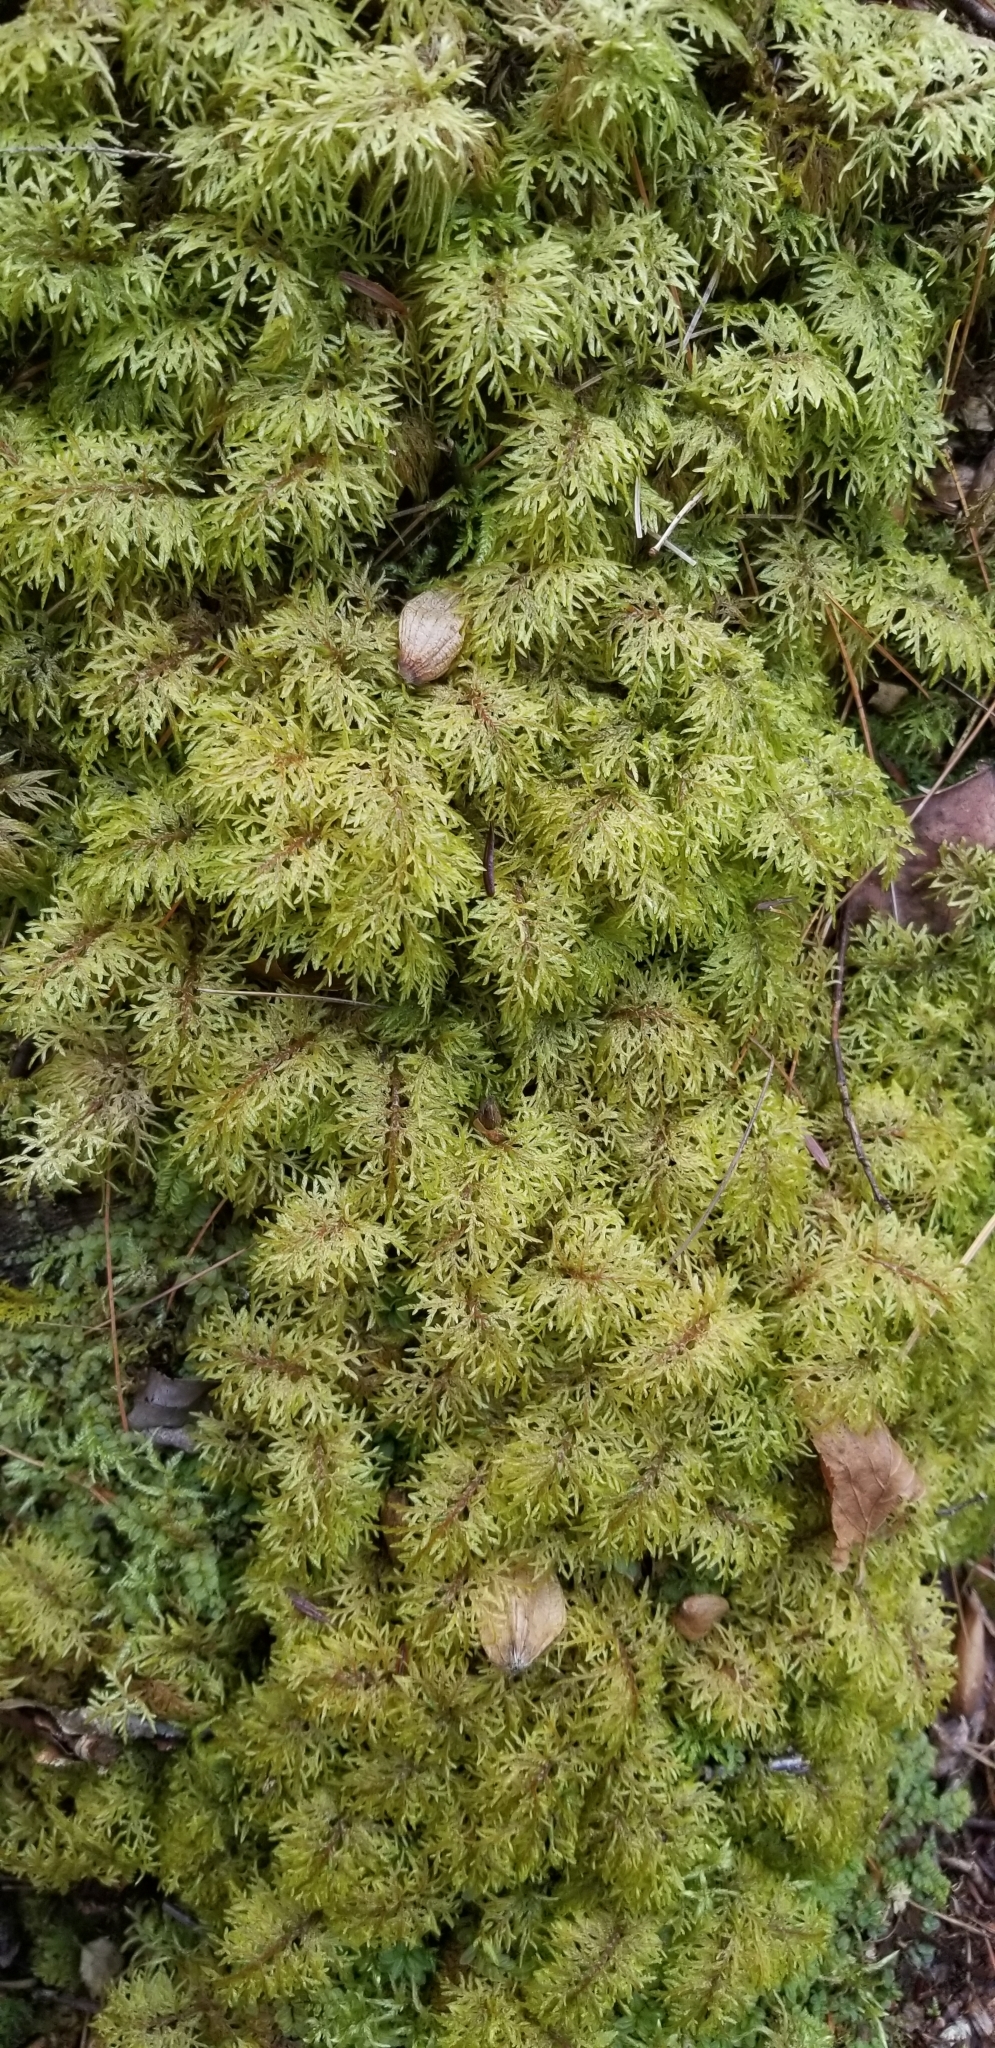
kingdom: Plantae
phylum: Bryophyta
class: Bryopsida
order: Hypnales
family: Hylocomiaceae
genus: Hylocomium
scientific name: Hylocomium splendens
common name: Stairstep moss
